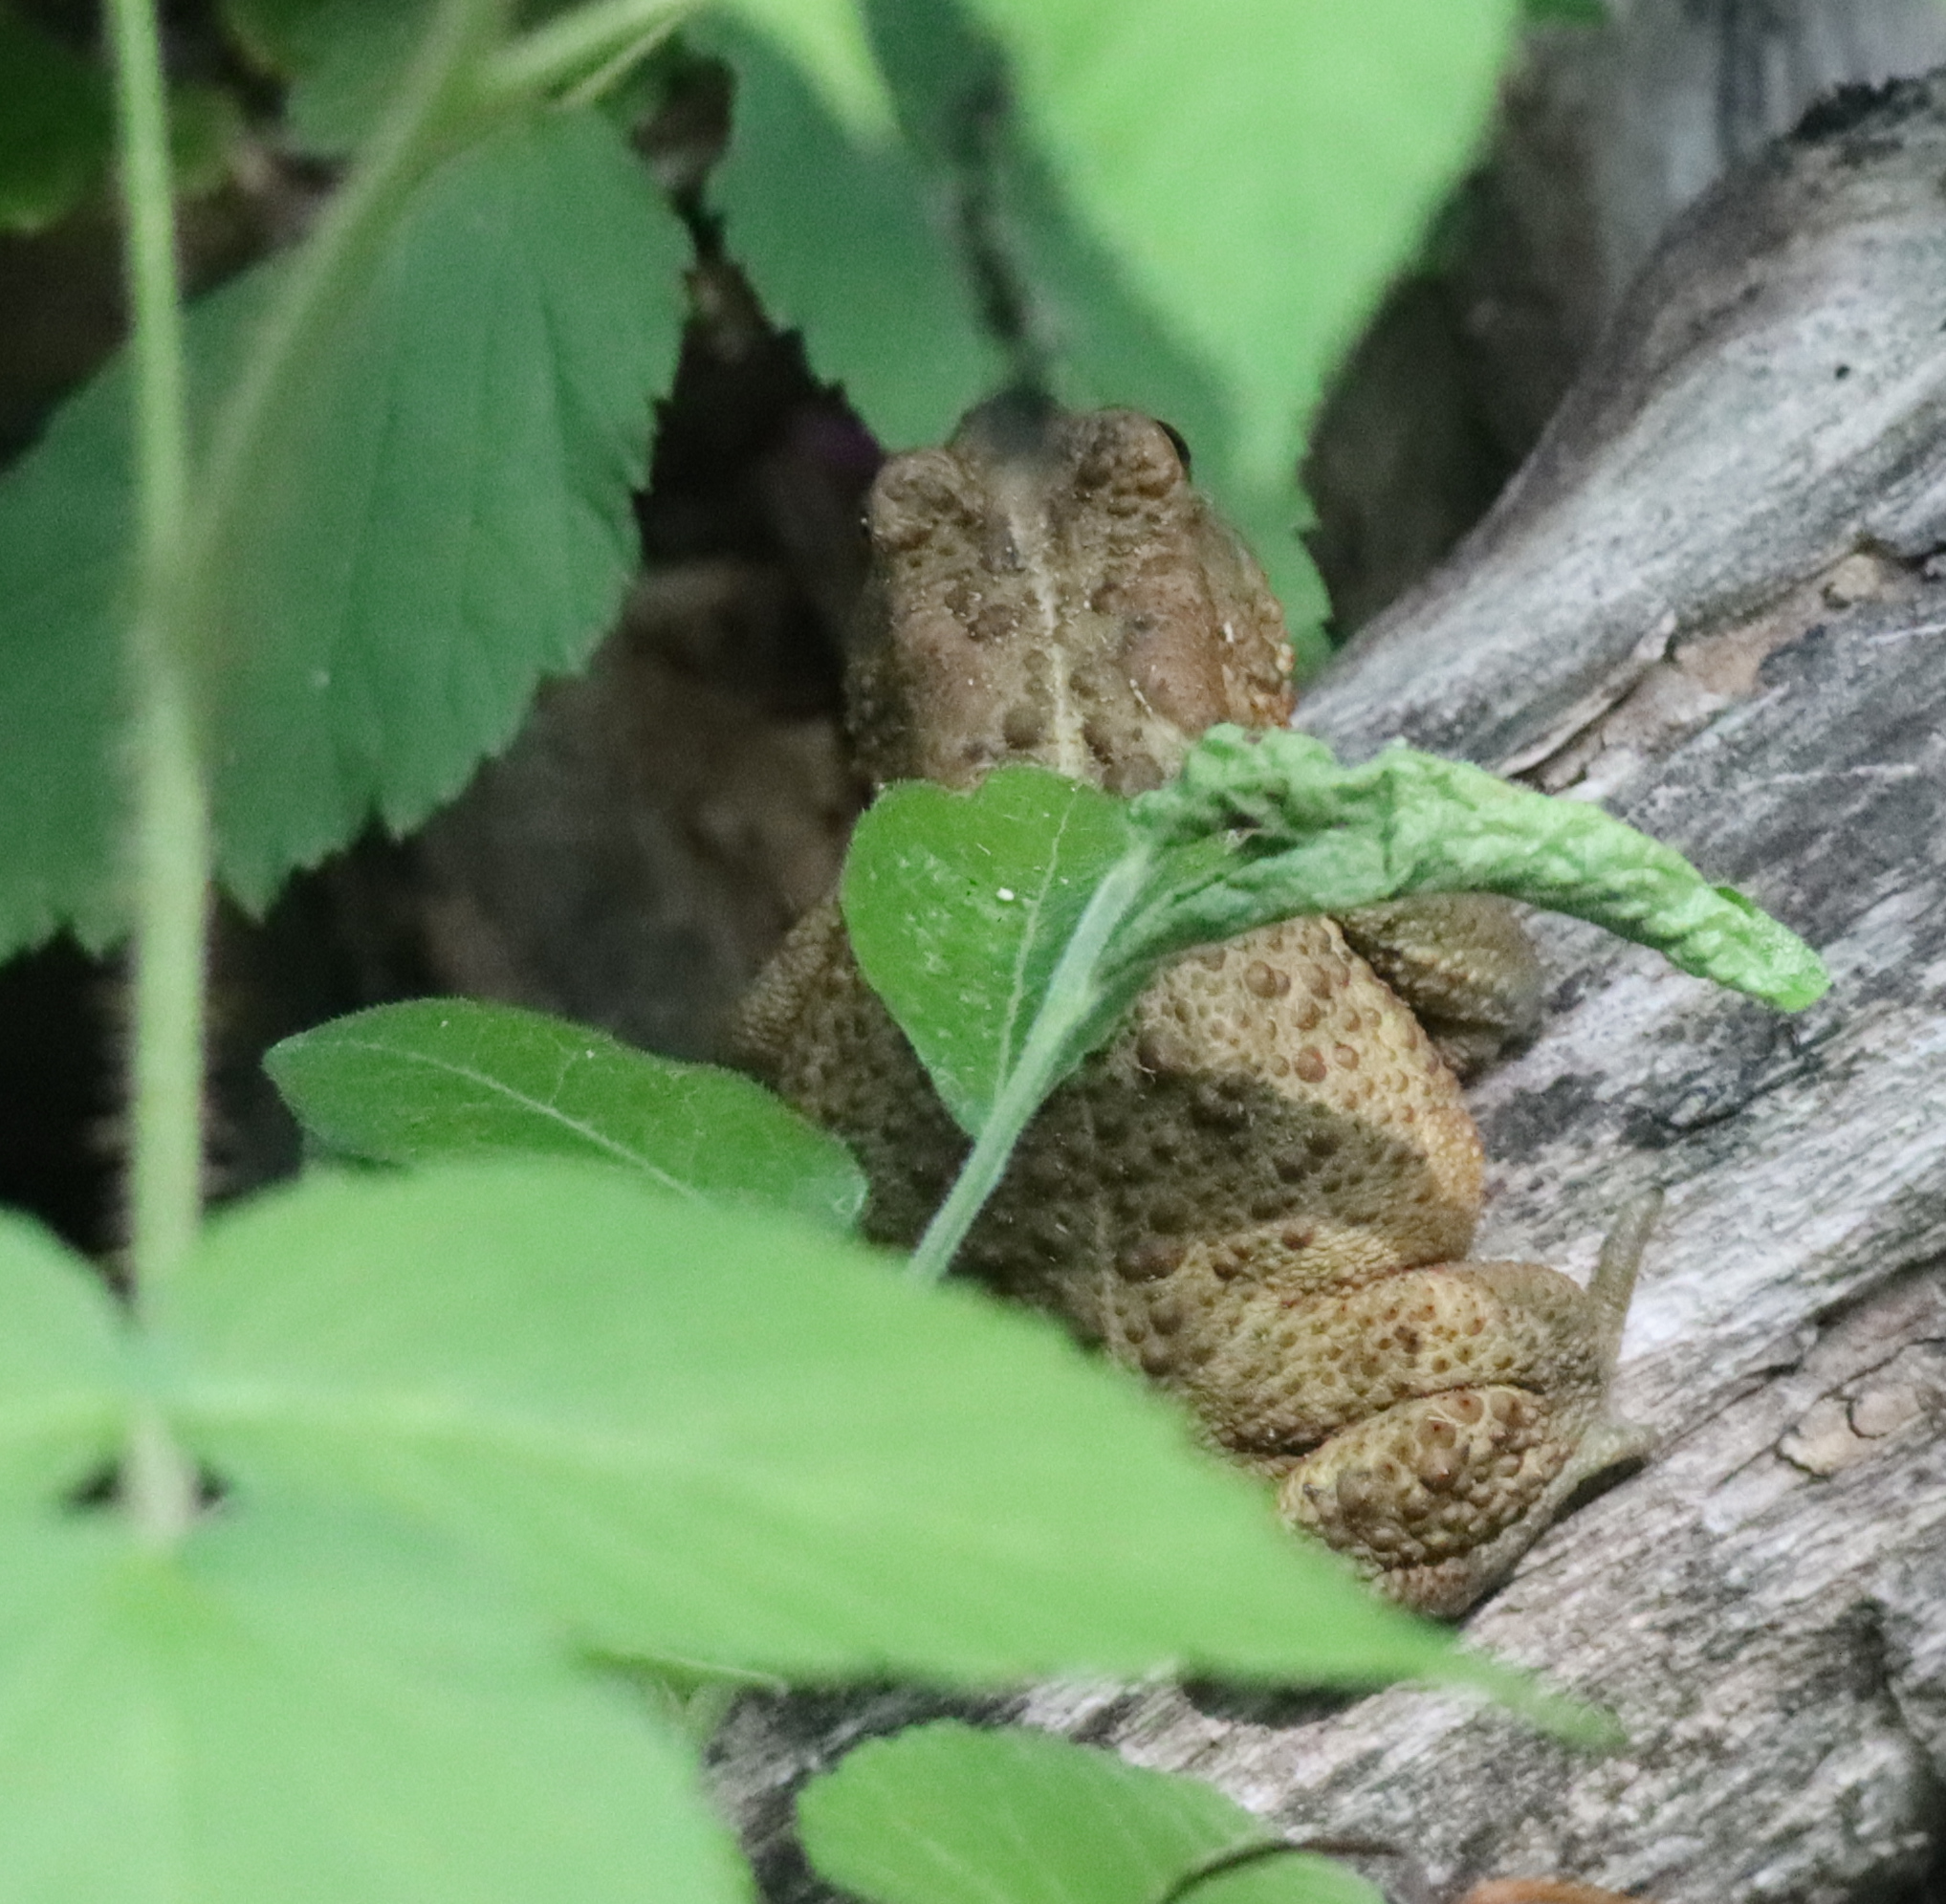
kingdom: Animalia
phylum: Chordata
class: Amphibia
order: Anura
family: Bufonidae
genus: Anaxyrus
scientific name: Anaxyrus americanus
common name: American toad
